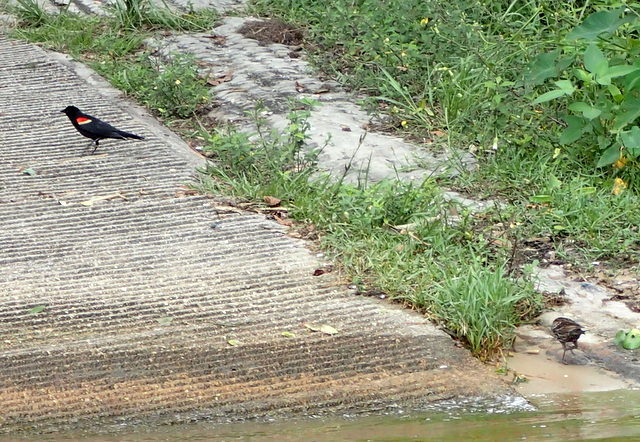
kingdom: Animalia
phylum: Chordata
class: Aves
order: Passeriformes
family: Icteridae
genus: Agelaius
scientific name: Agelaius phoeniceus
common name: Red-winged blackbird
